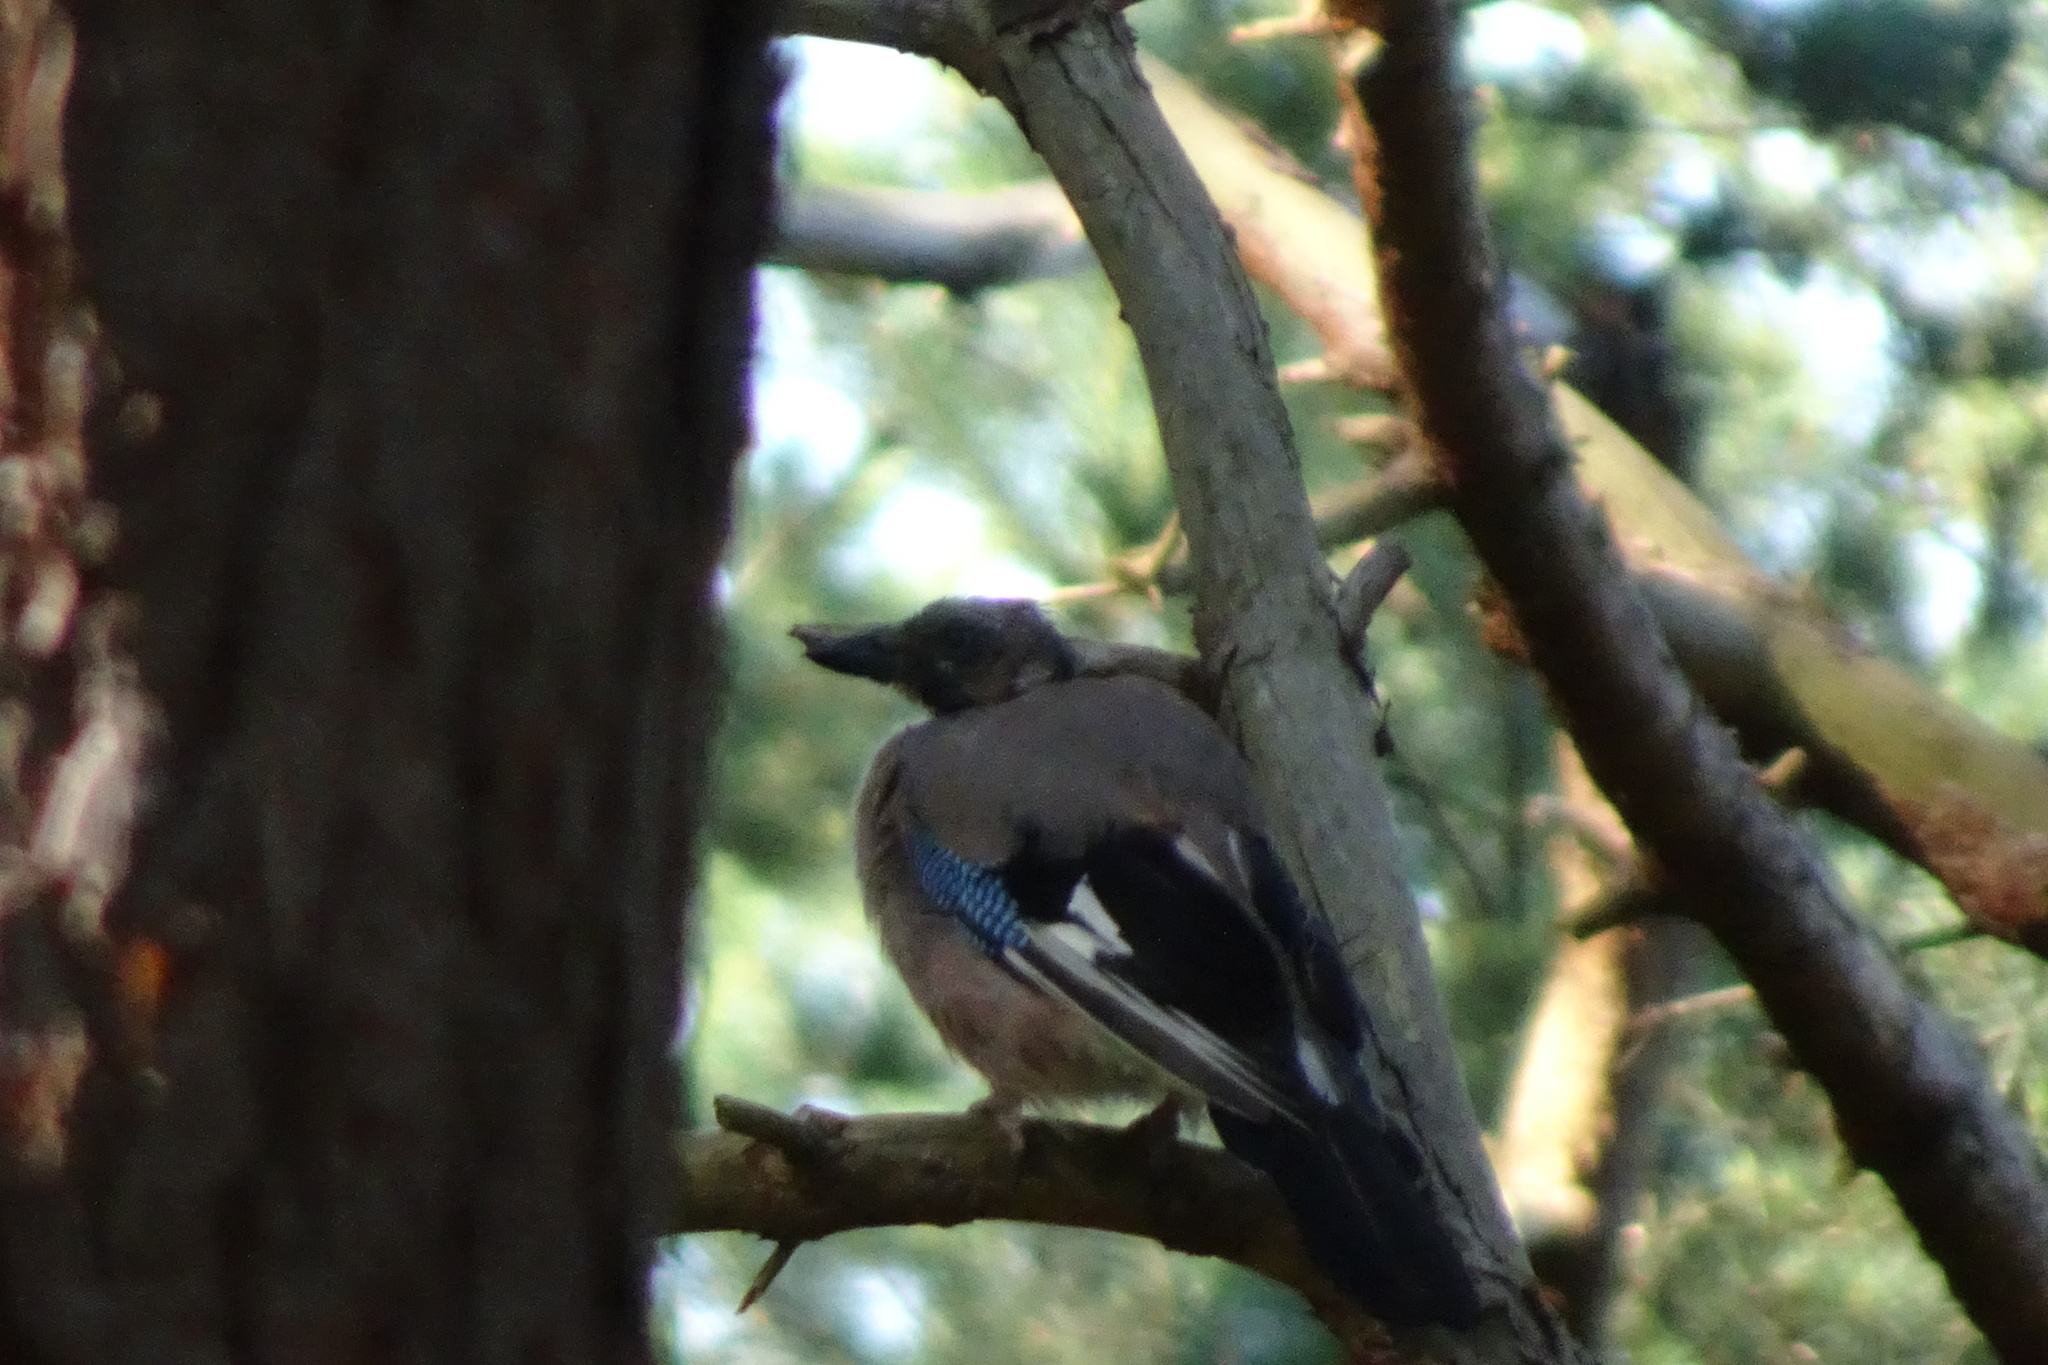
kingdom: Animalia
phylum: Chordata
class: Aves
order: Passeriformes
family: Corvidae
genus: Garrulus
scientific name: Garrulus glandarius
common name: Eurasian jay
